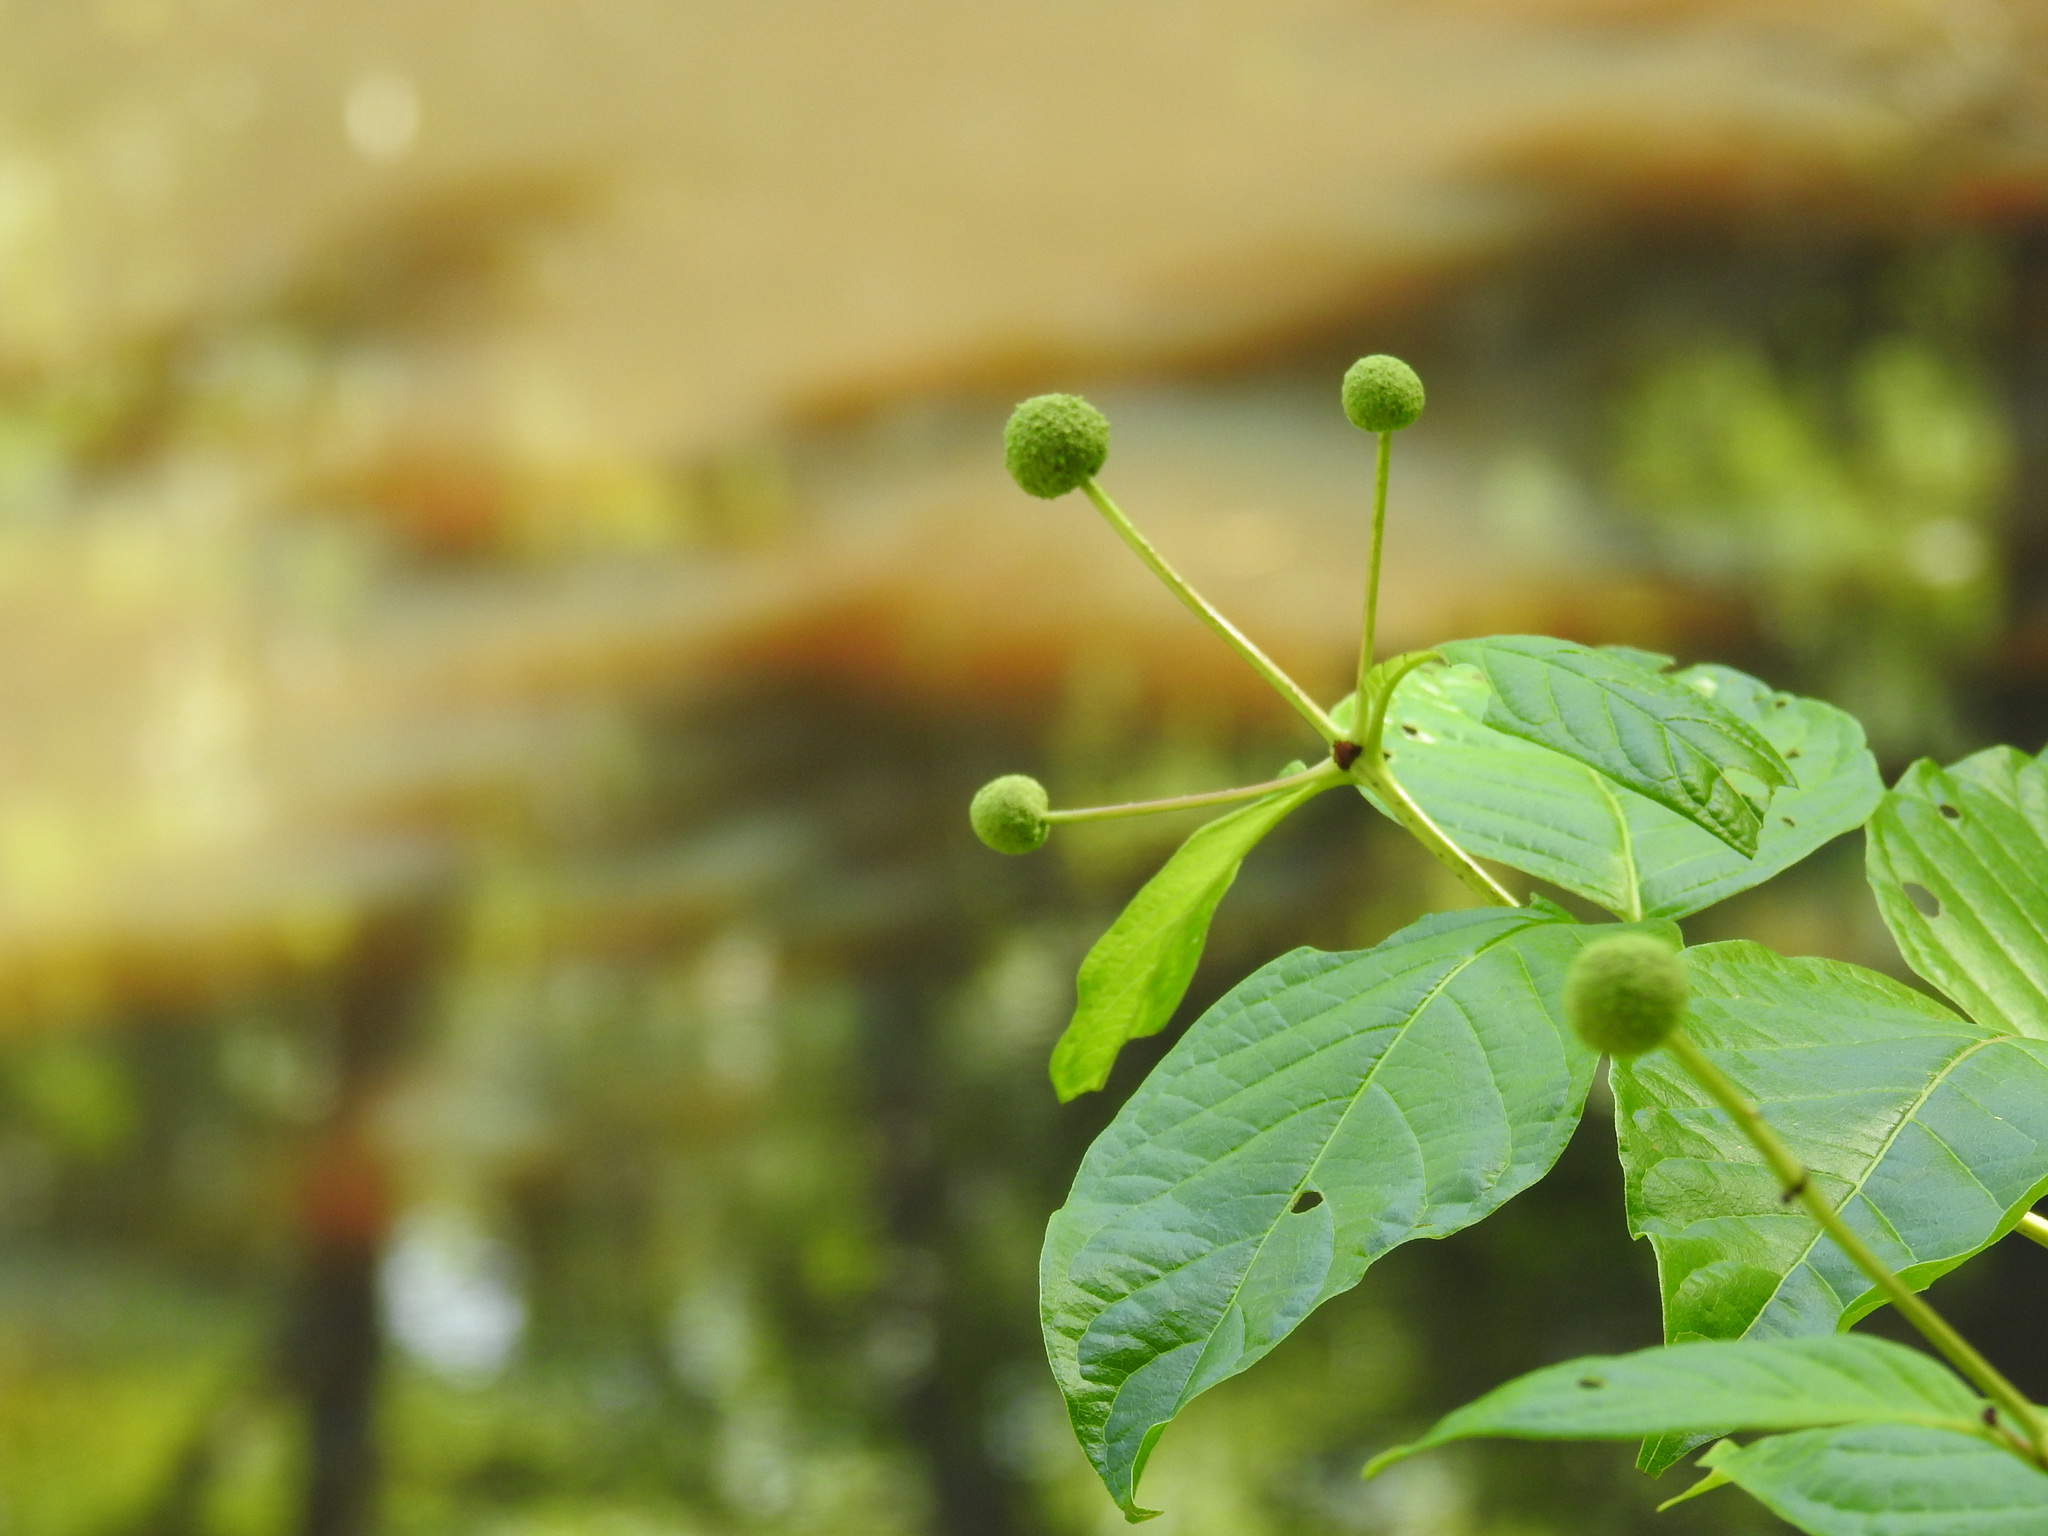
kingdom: Plantae
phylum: Tracheophyta
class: Magnoliopsida
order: Gentianales
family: Rubiaceae
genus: Cephalanthus
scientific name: Cephalanthus occidentalis
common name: Button-willow
